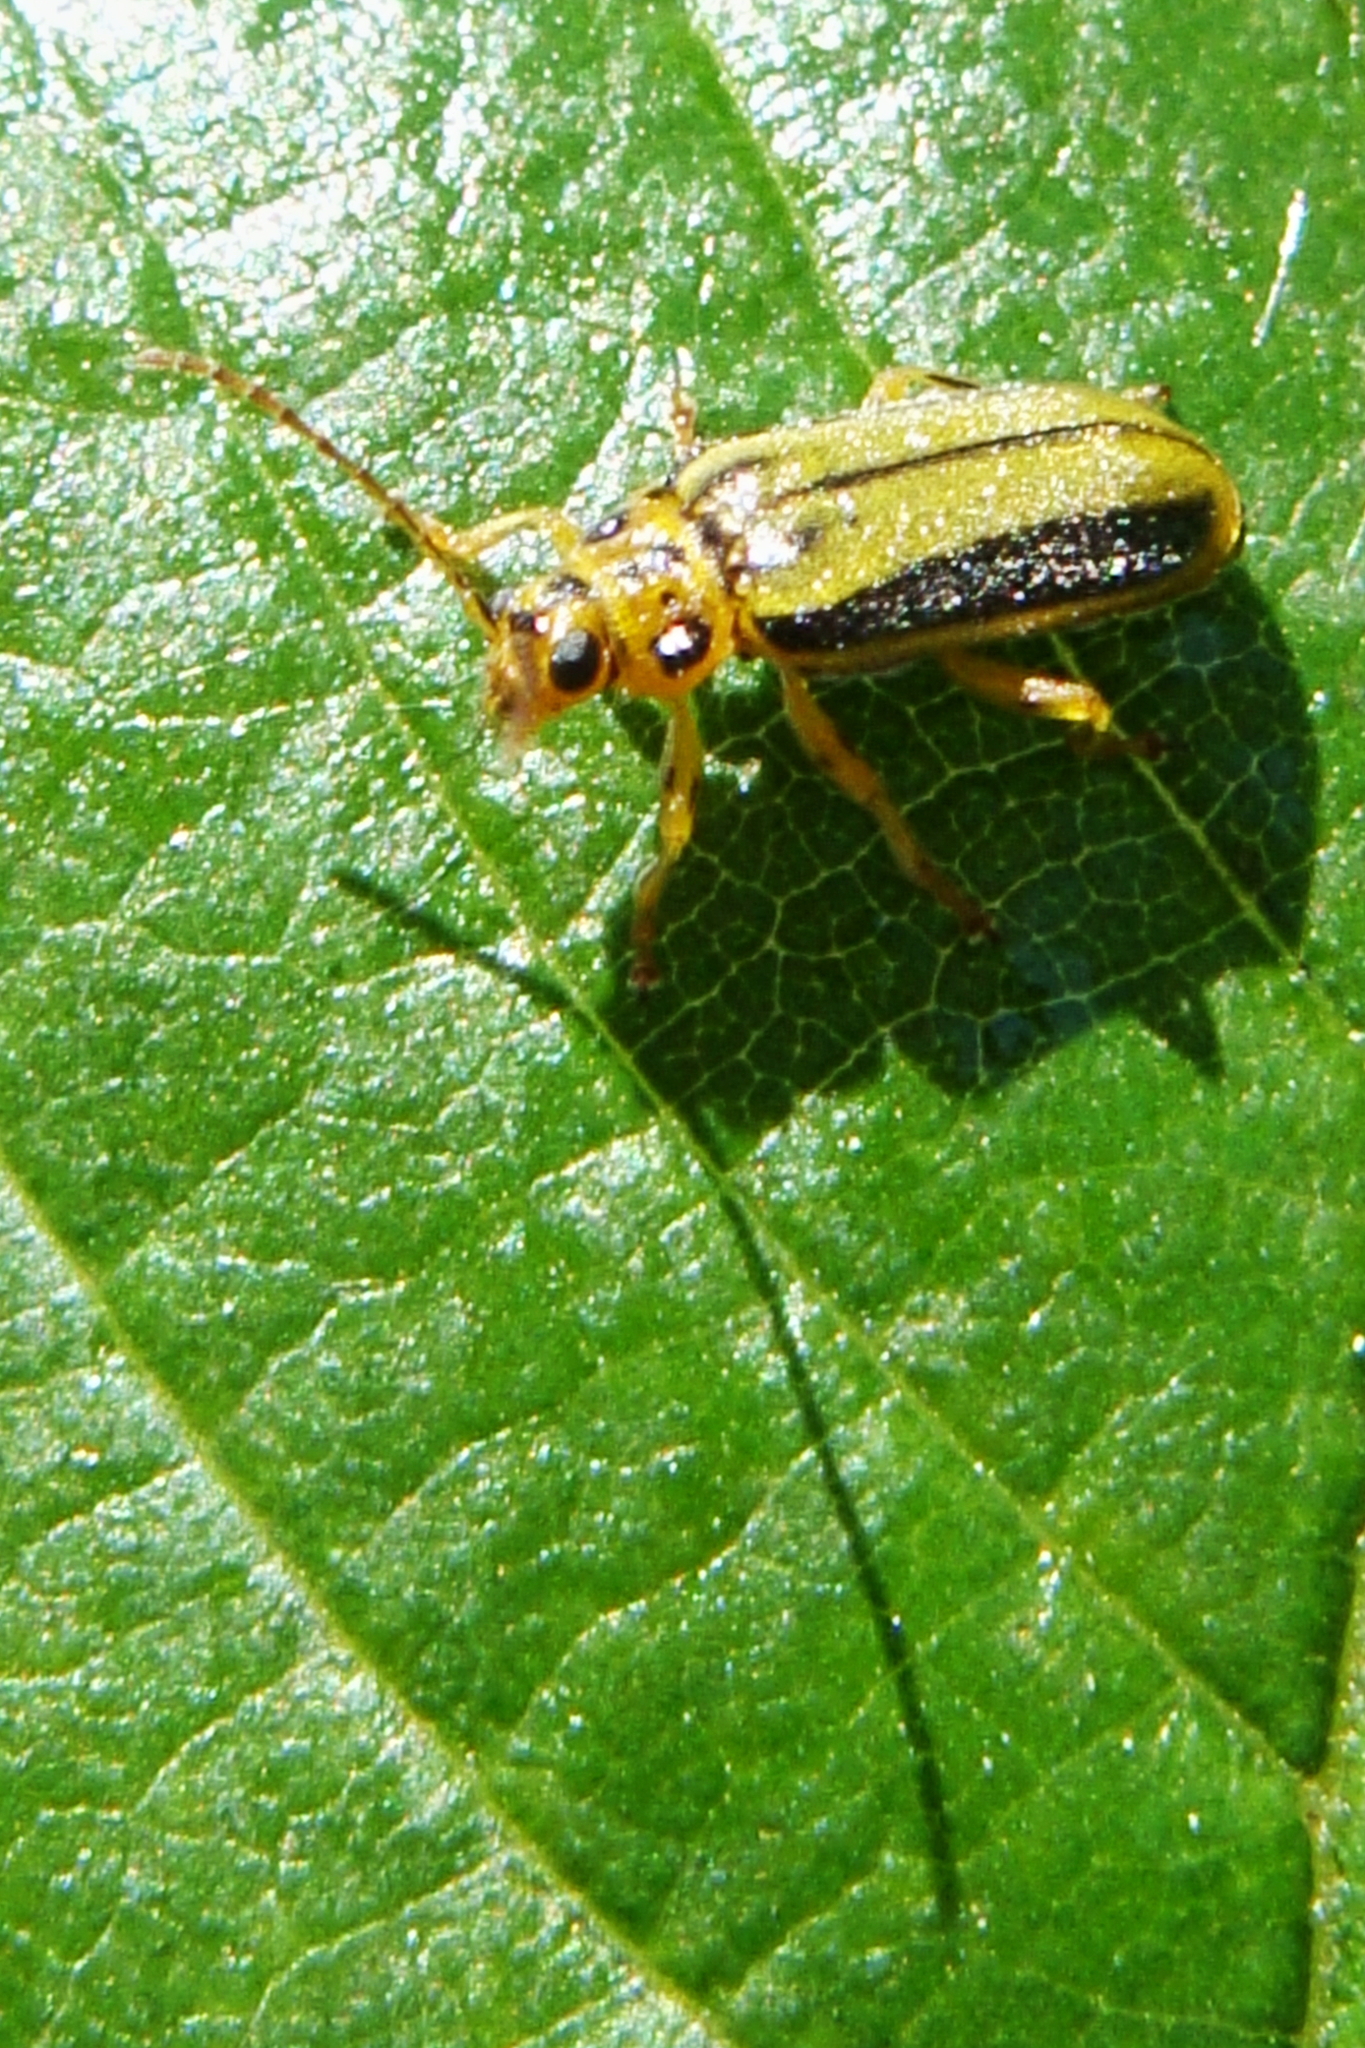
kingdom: Animalia
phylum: Arthropoda
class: Insecta
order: Coleoptera
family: Chrysomelidae
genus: Xanthogaleruca
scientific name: Xanthogaleruca luteola
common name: Elm leaf beetle
